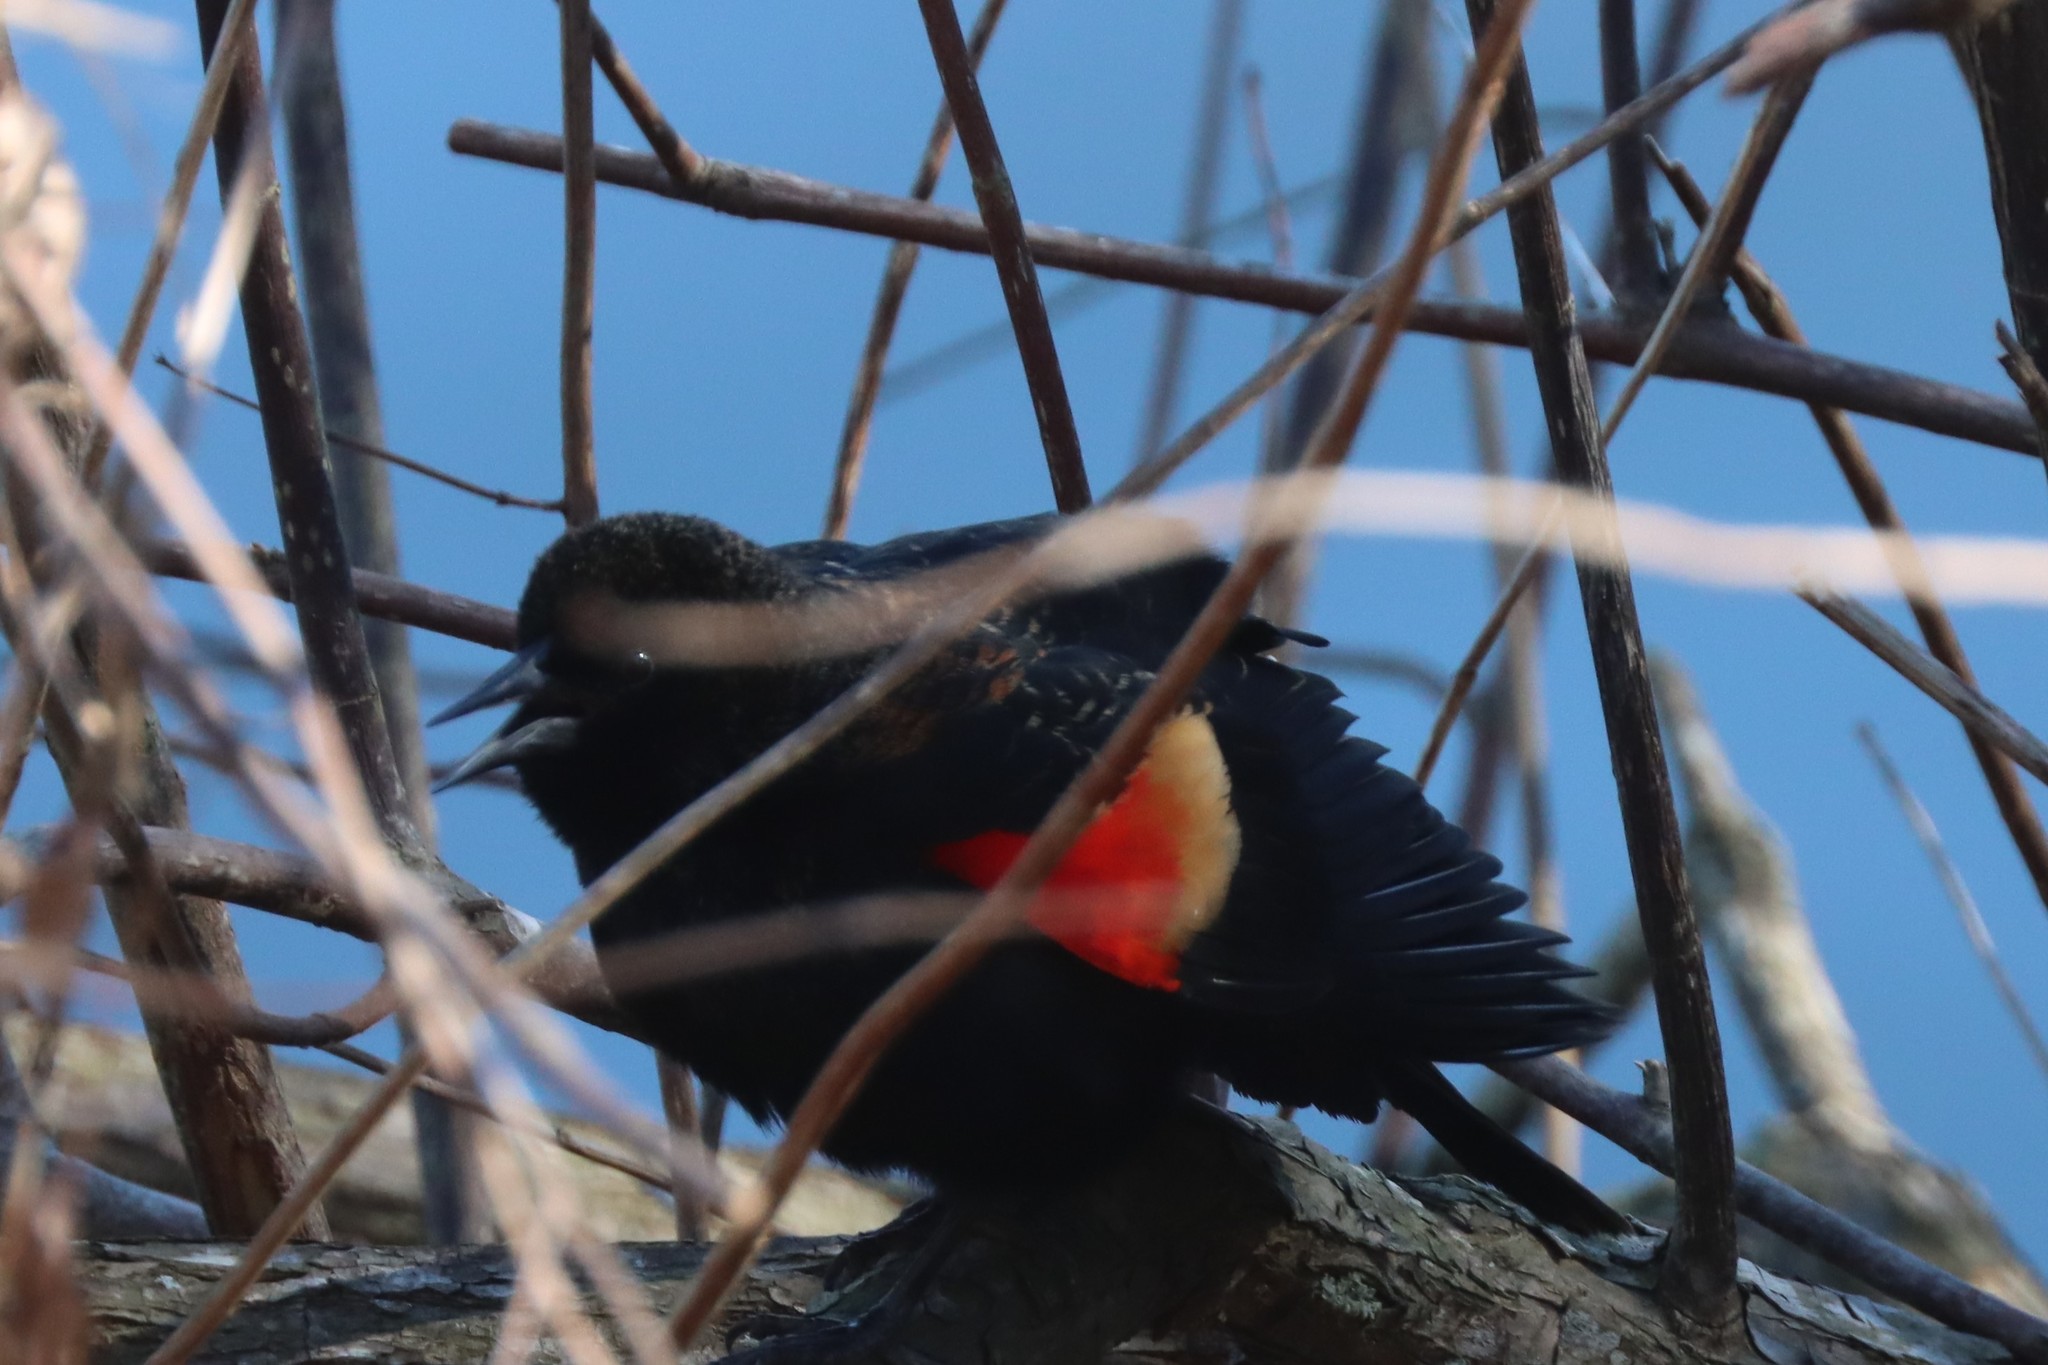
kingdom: Animalia
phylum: Chordata
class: Aves
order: Passeriformes
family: Icteridae
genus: Agelaius
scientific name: Agelaius phoeniceus
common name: Red-winged blackbird
